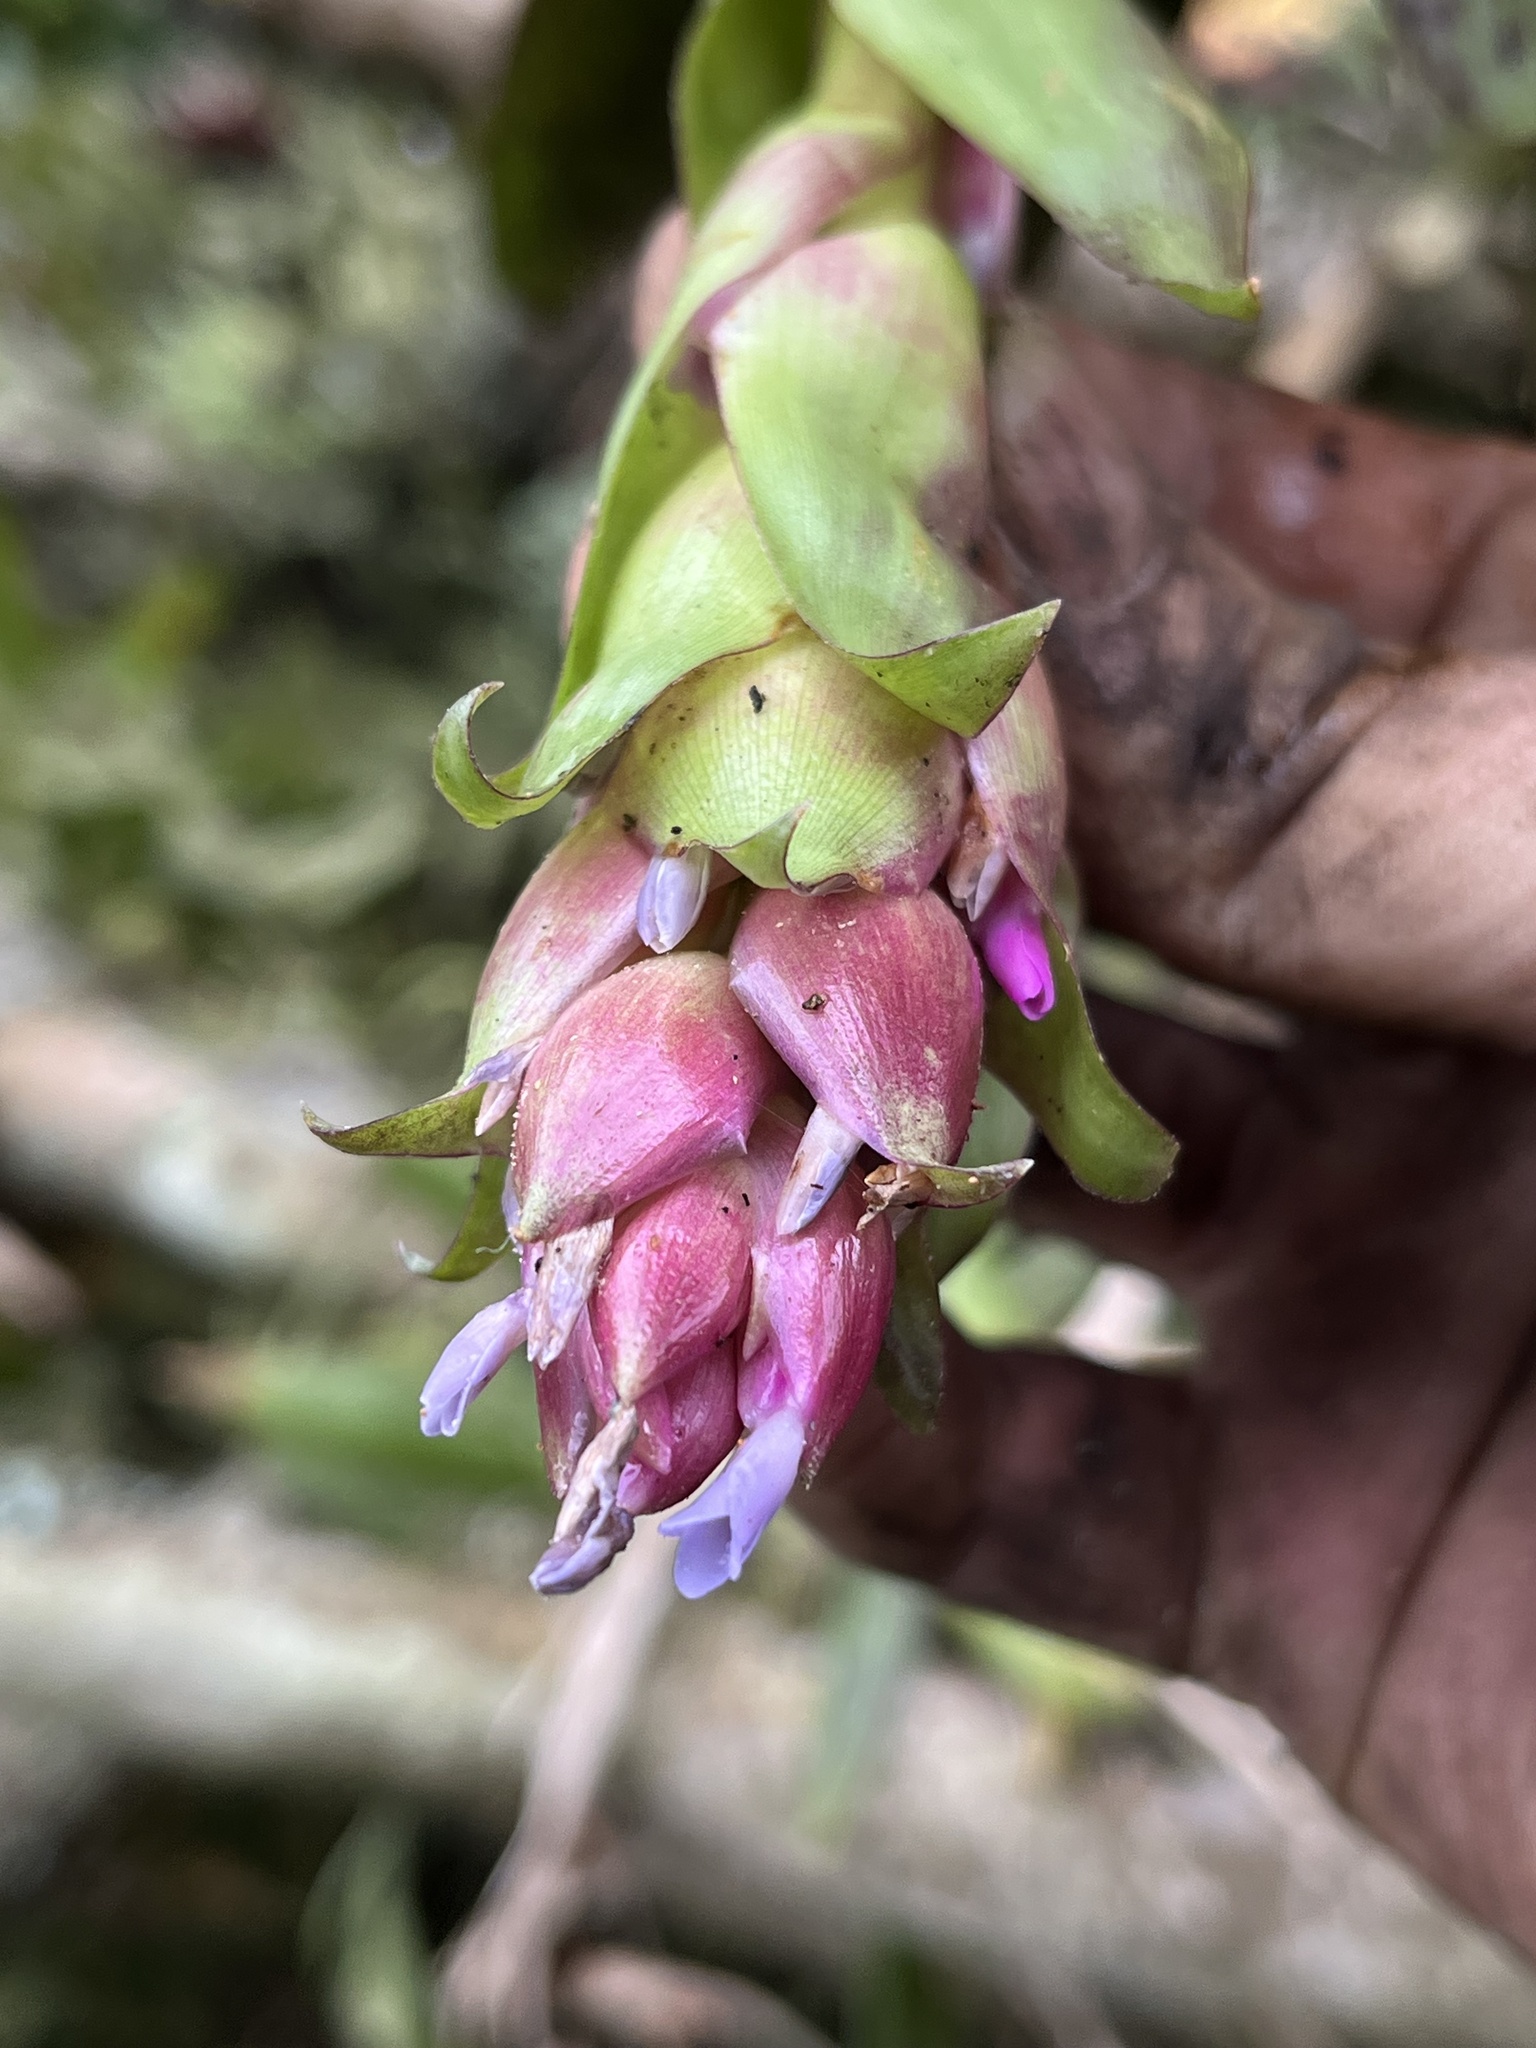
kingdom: Plantae
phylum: Tracheophyta
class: Liliopsida
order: Poales
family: Bromeliaceae
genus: Tillandsia
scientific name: Tillandsia biflora
